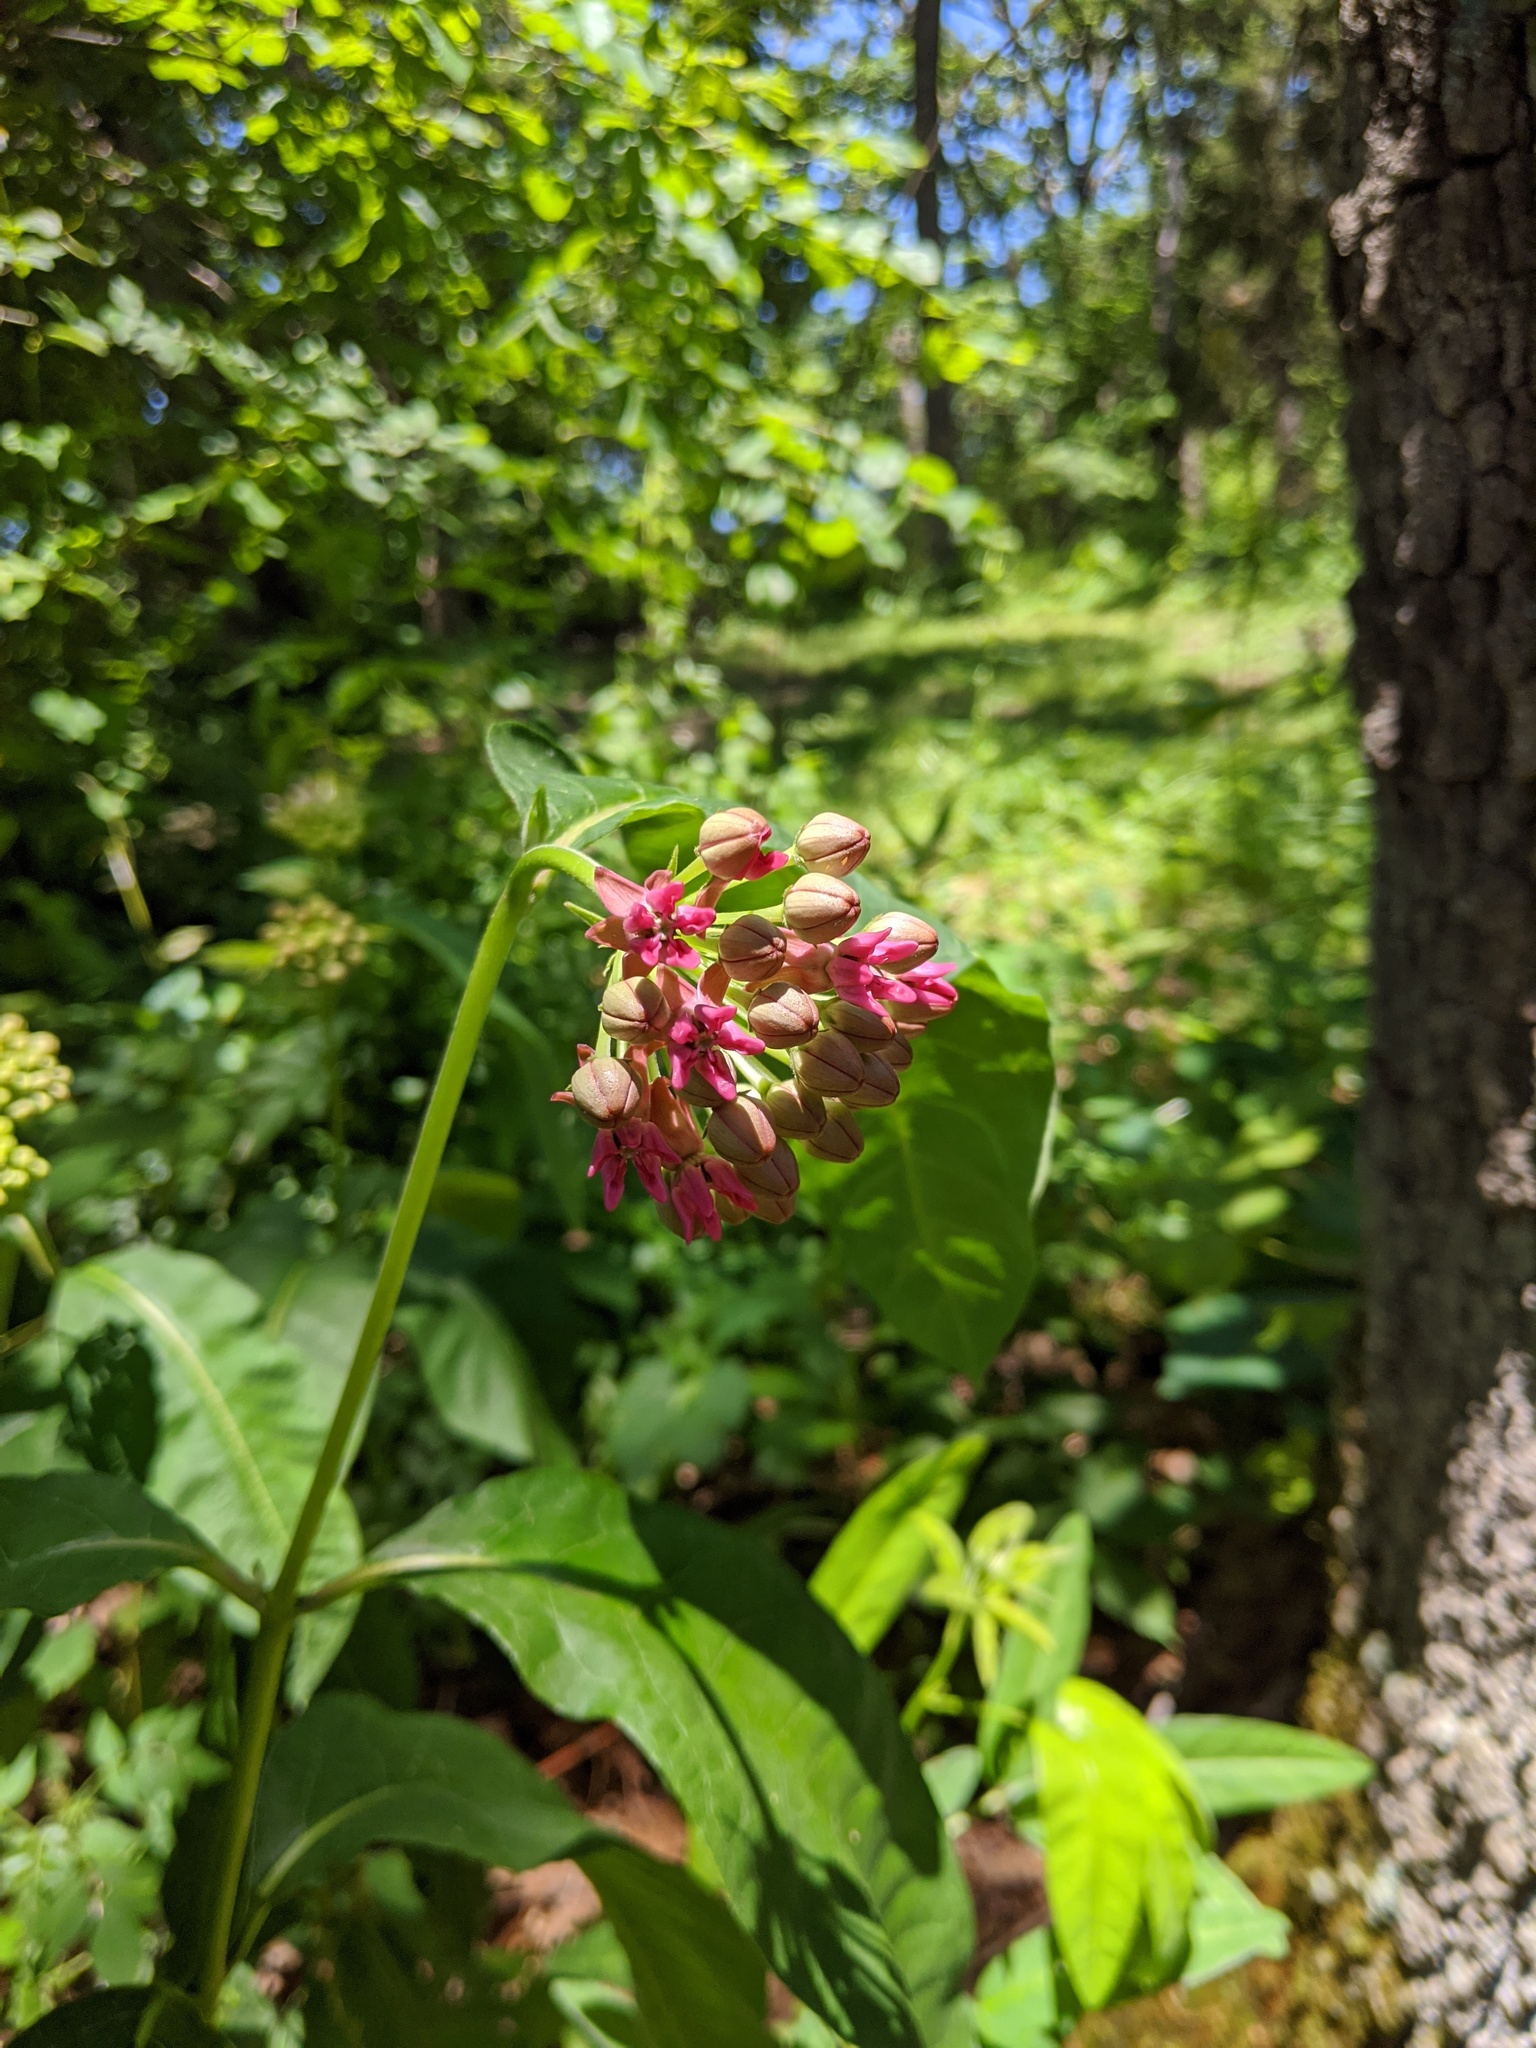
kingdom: Plantae
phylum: Tracheophyta
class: Magnoliopsida
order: Gentianales
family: Apocynaceae
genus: Asclepias
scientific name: Asclepias purpurascens
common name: Purple milkweed
